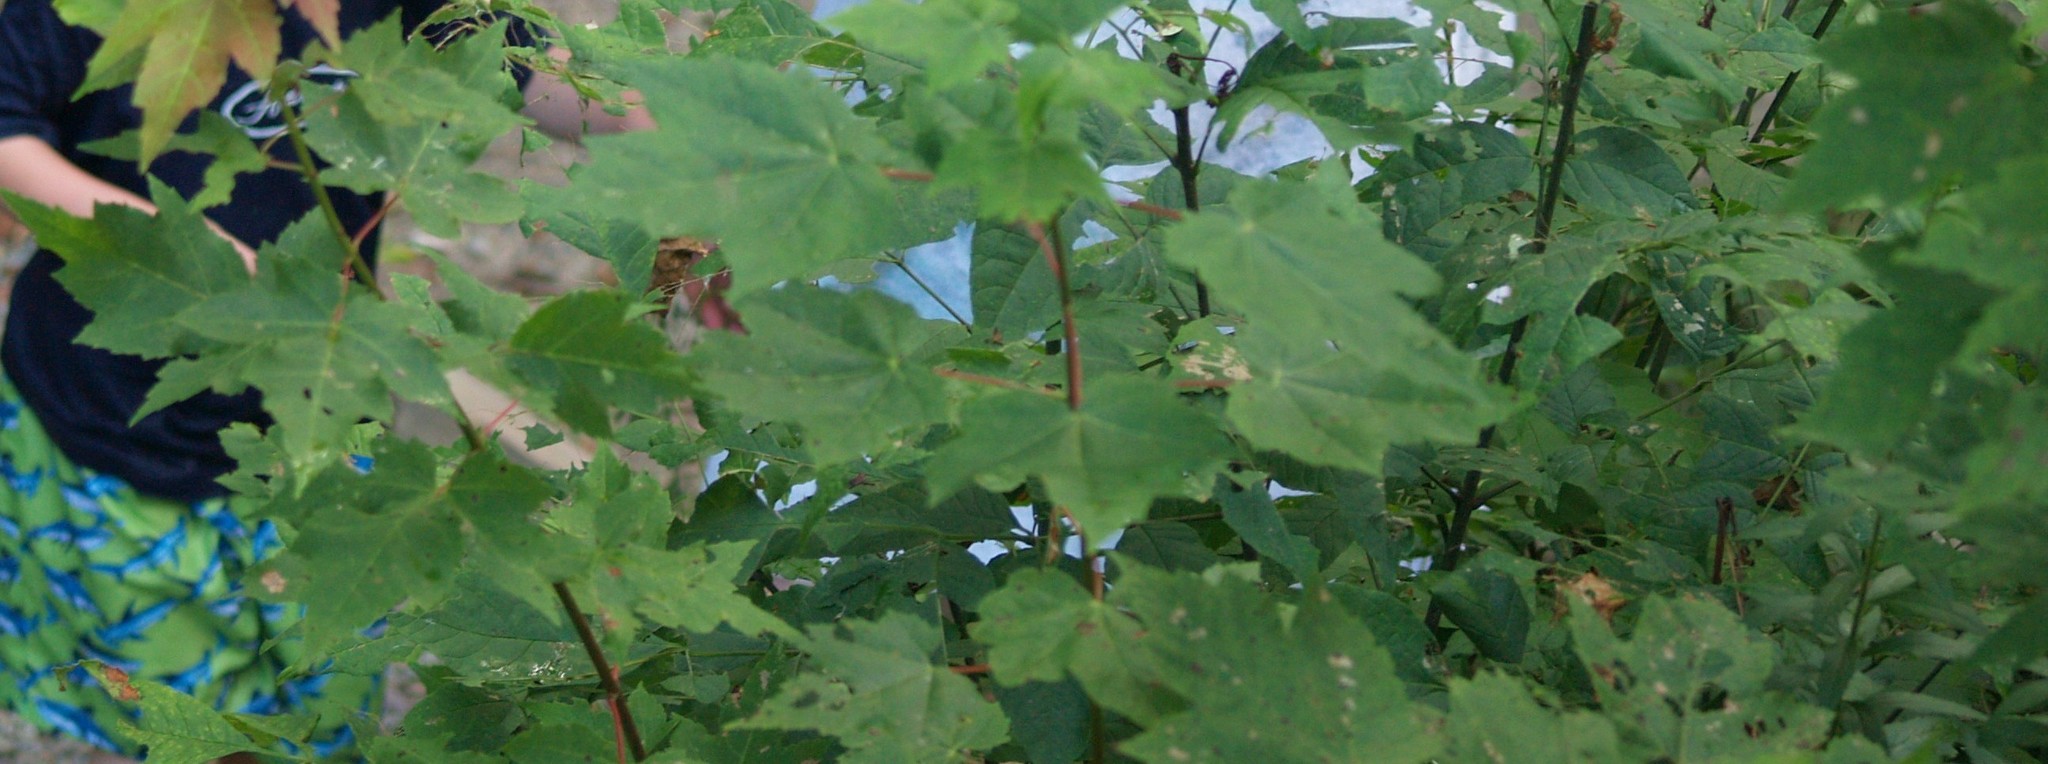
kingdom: Plantae
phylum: Tracheophyta
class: Magnoliopsida
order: Sapindales
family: Sapindaceae
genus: Acer
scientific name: Acer rubrum
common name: Red maple
